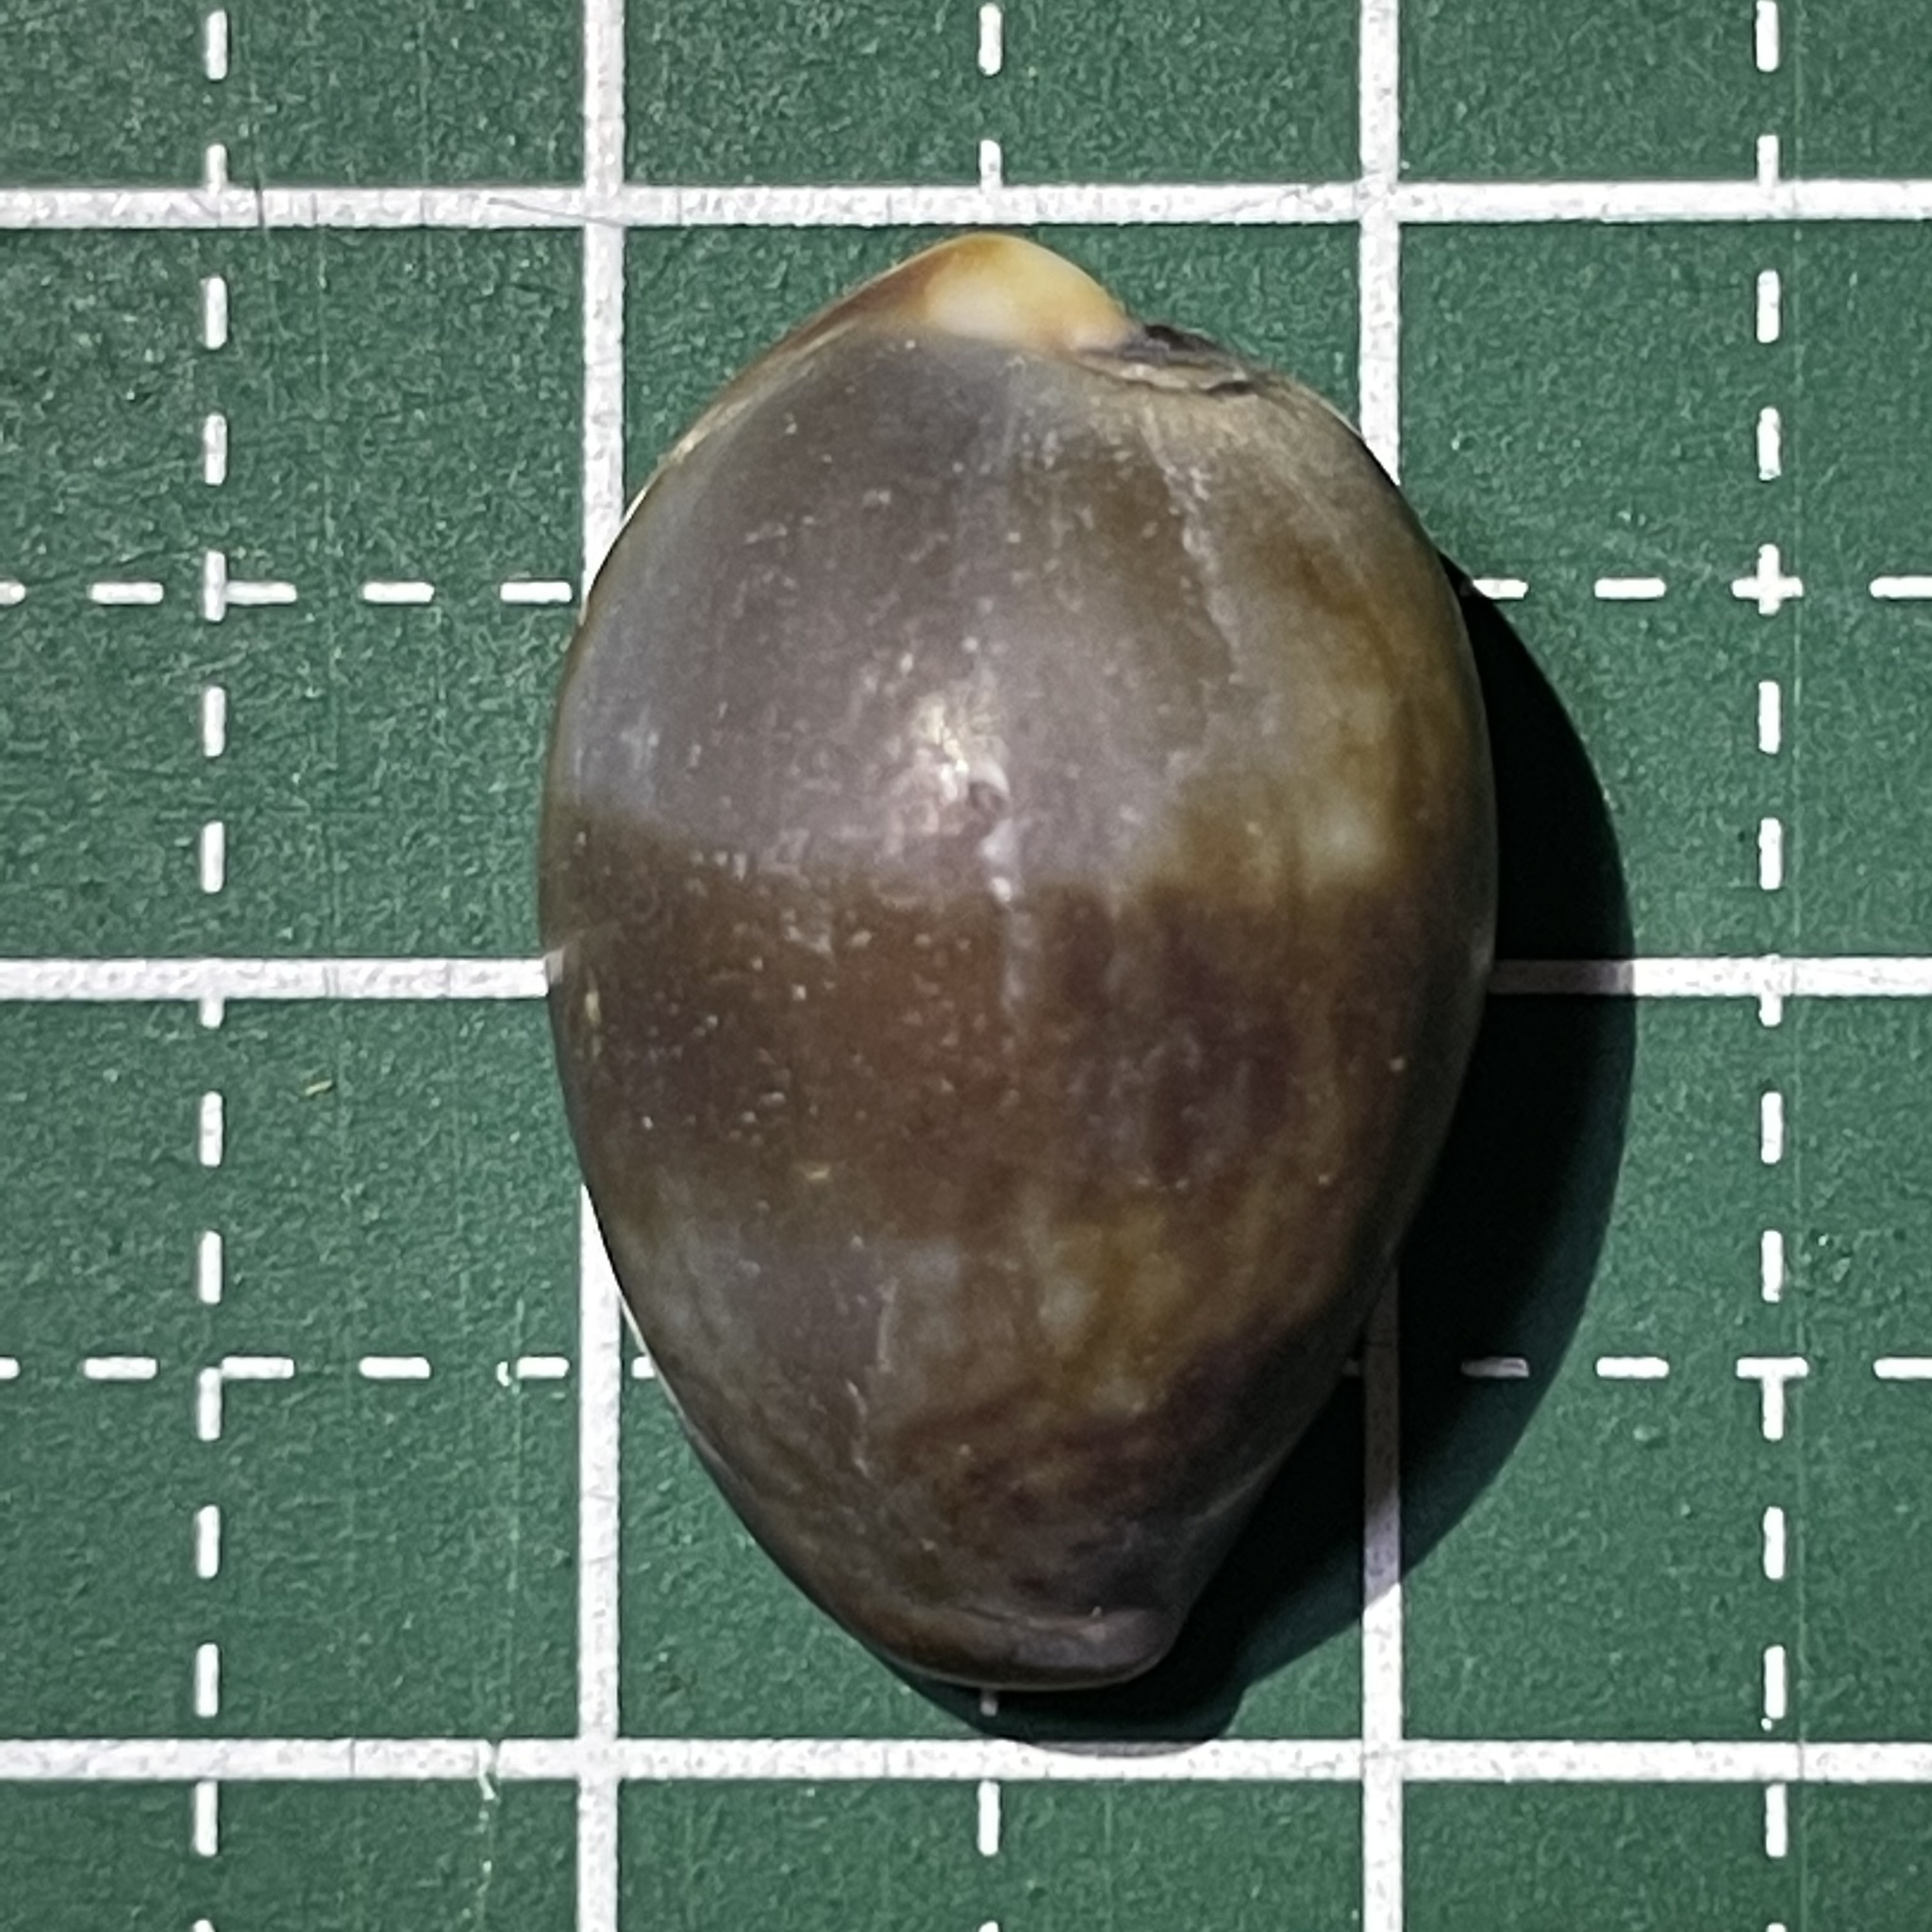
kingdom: Animalia
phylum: Mollusca
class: Gastropoda
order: Littorinimorpha
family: Cypraeidae
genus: Monetaria
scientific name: Monetaria caputserpentis
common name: Serpent's head cowrie
